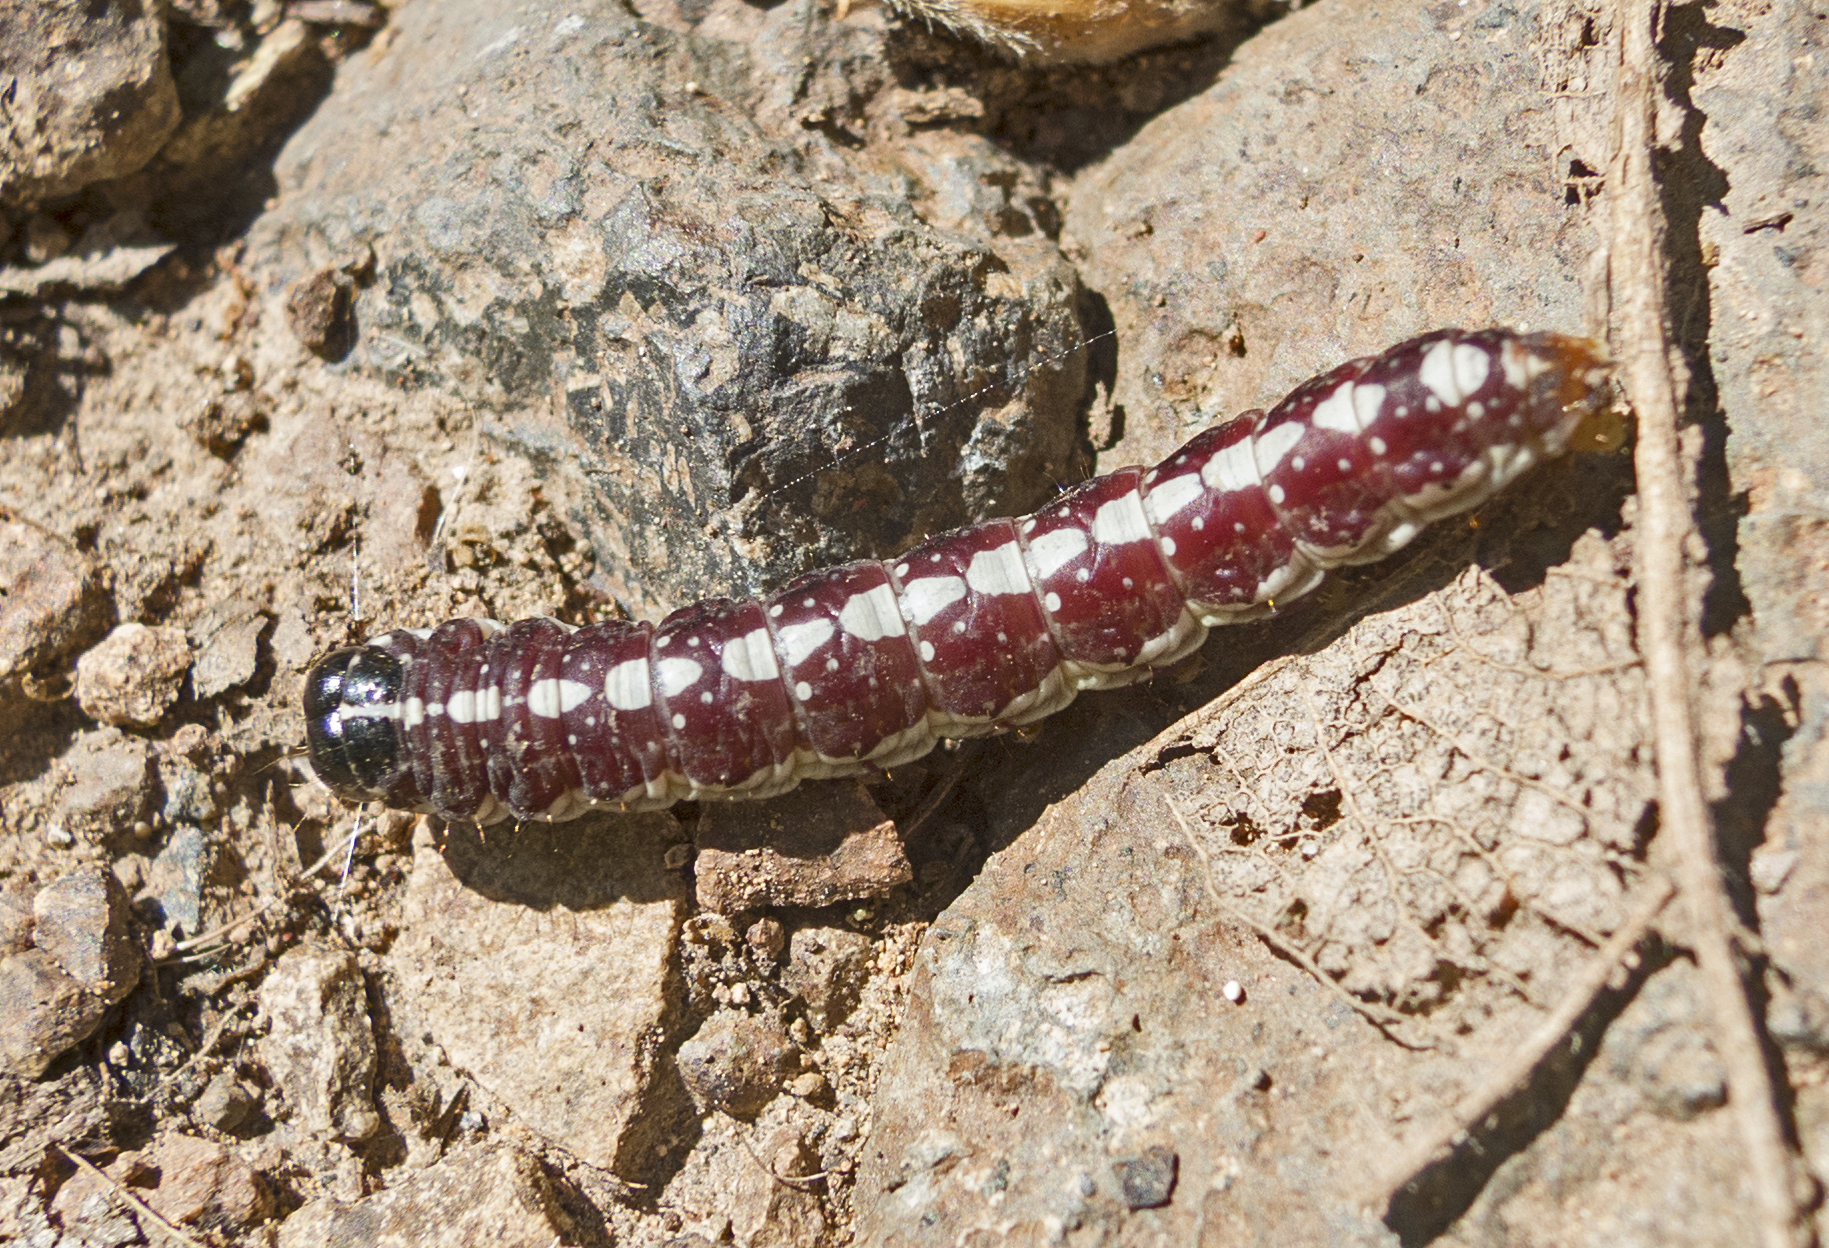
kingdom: Animalia
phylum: Arthropoda
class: Insecta
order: Lepidoptera
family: Noctuidae
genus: Dicycla
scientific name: Dicycla oo
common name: Heart moth
